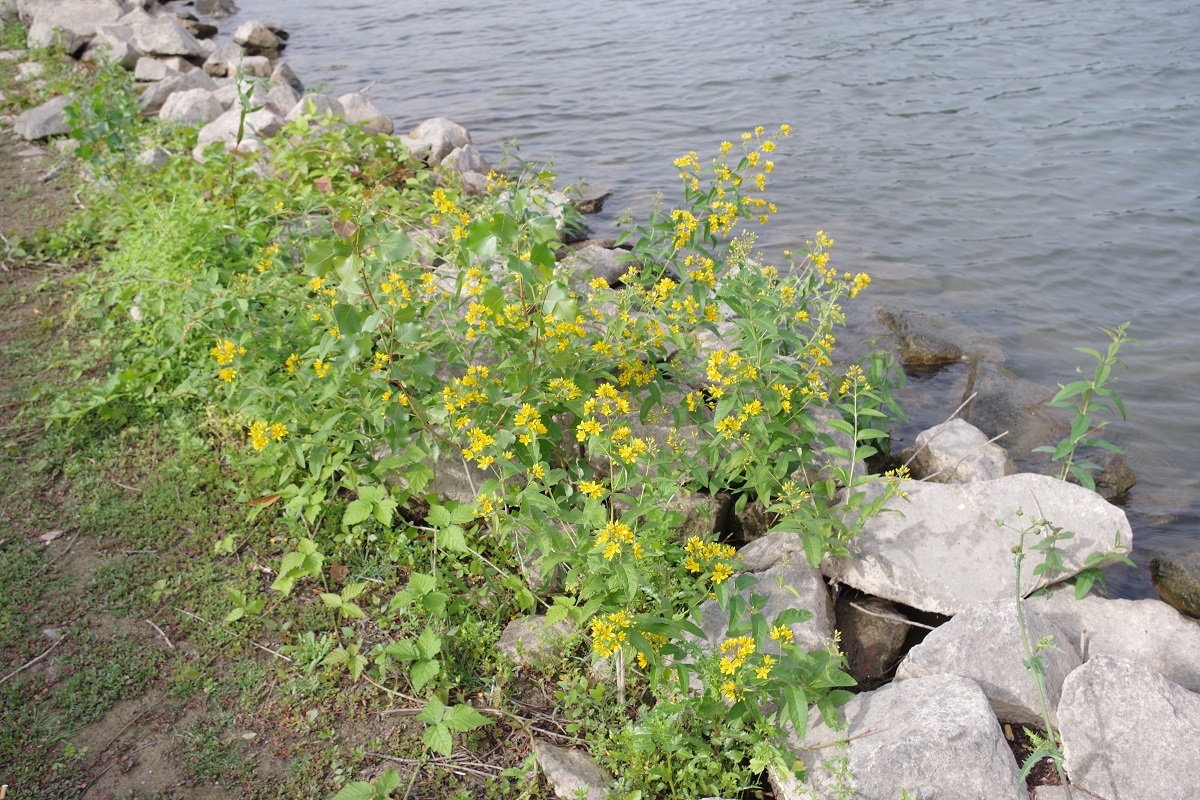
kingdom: Plantae
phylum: Tracheophyta
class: Magnoliopsida
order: Ericales
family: Primulaceae
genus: Lysimachia
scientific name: Lysimachia vulgaris
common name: Yellow loosestrife
